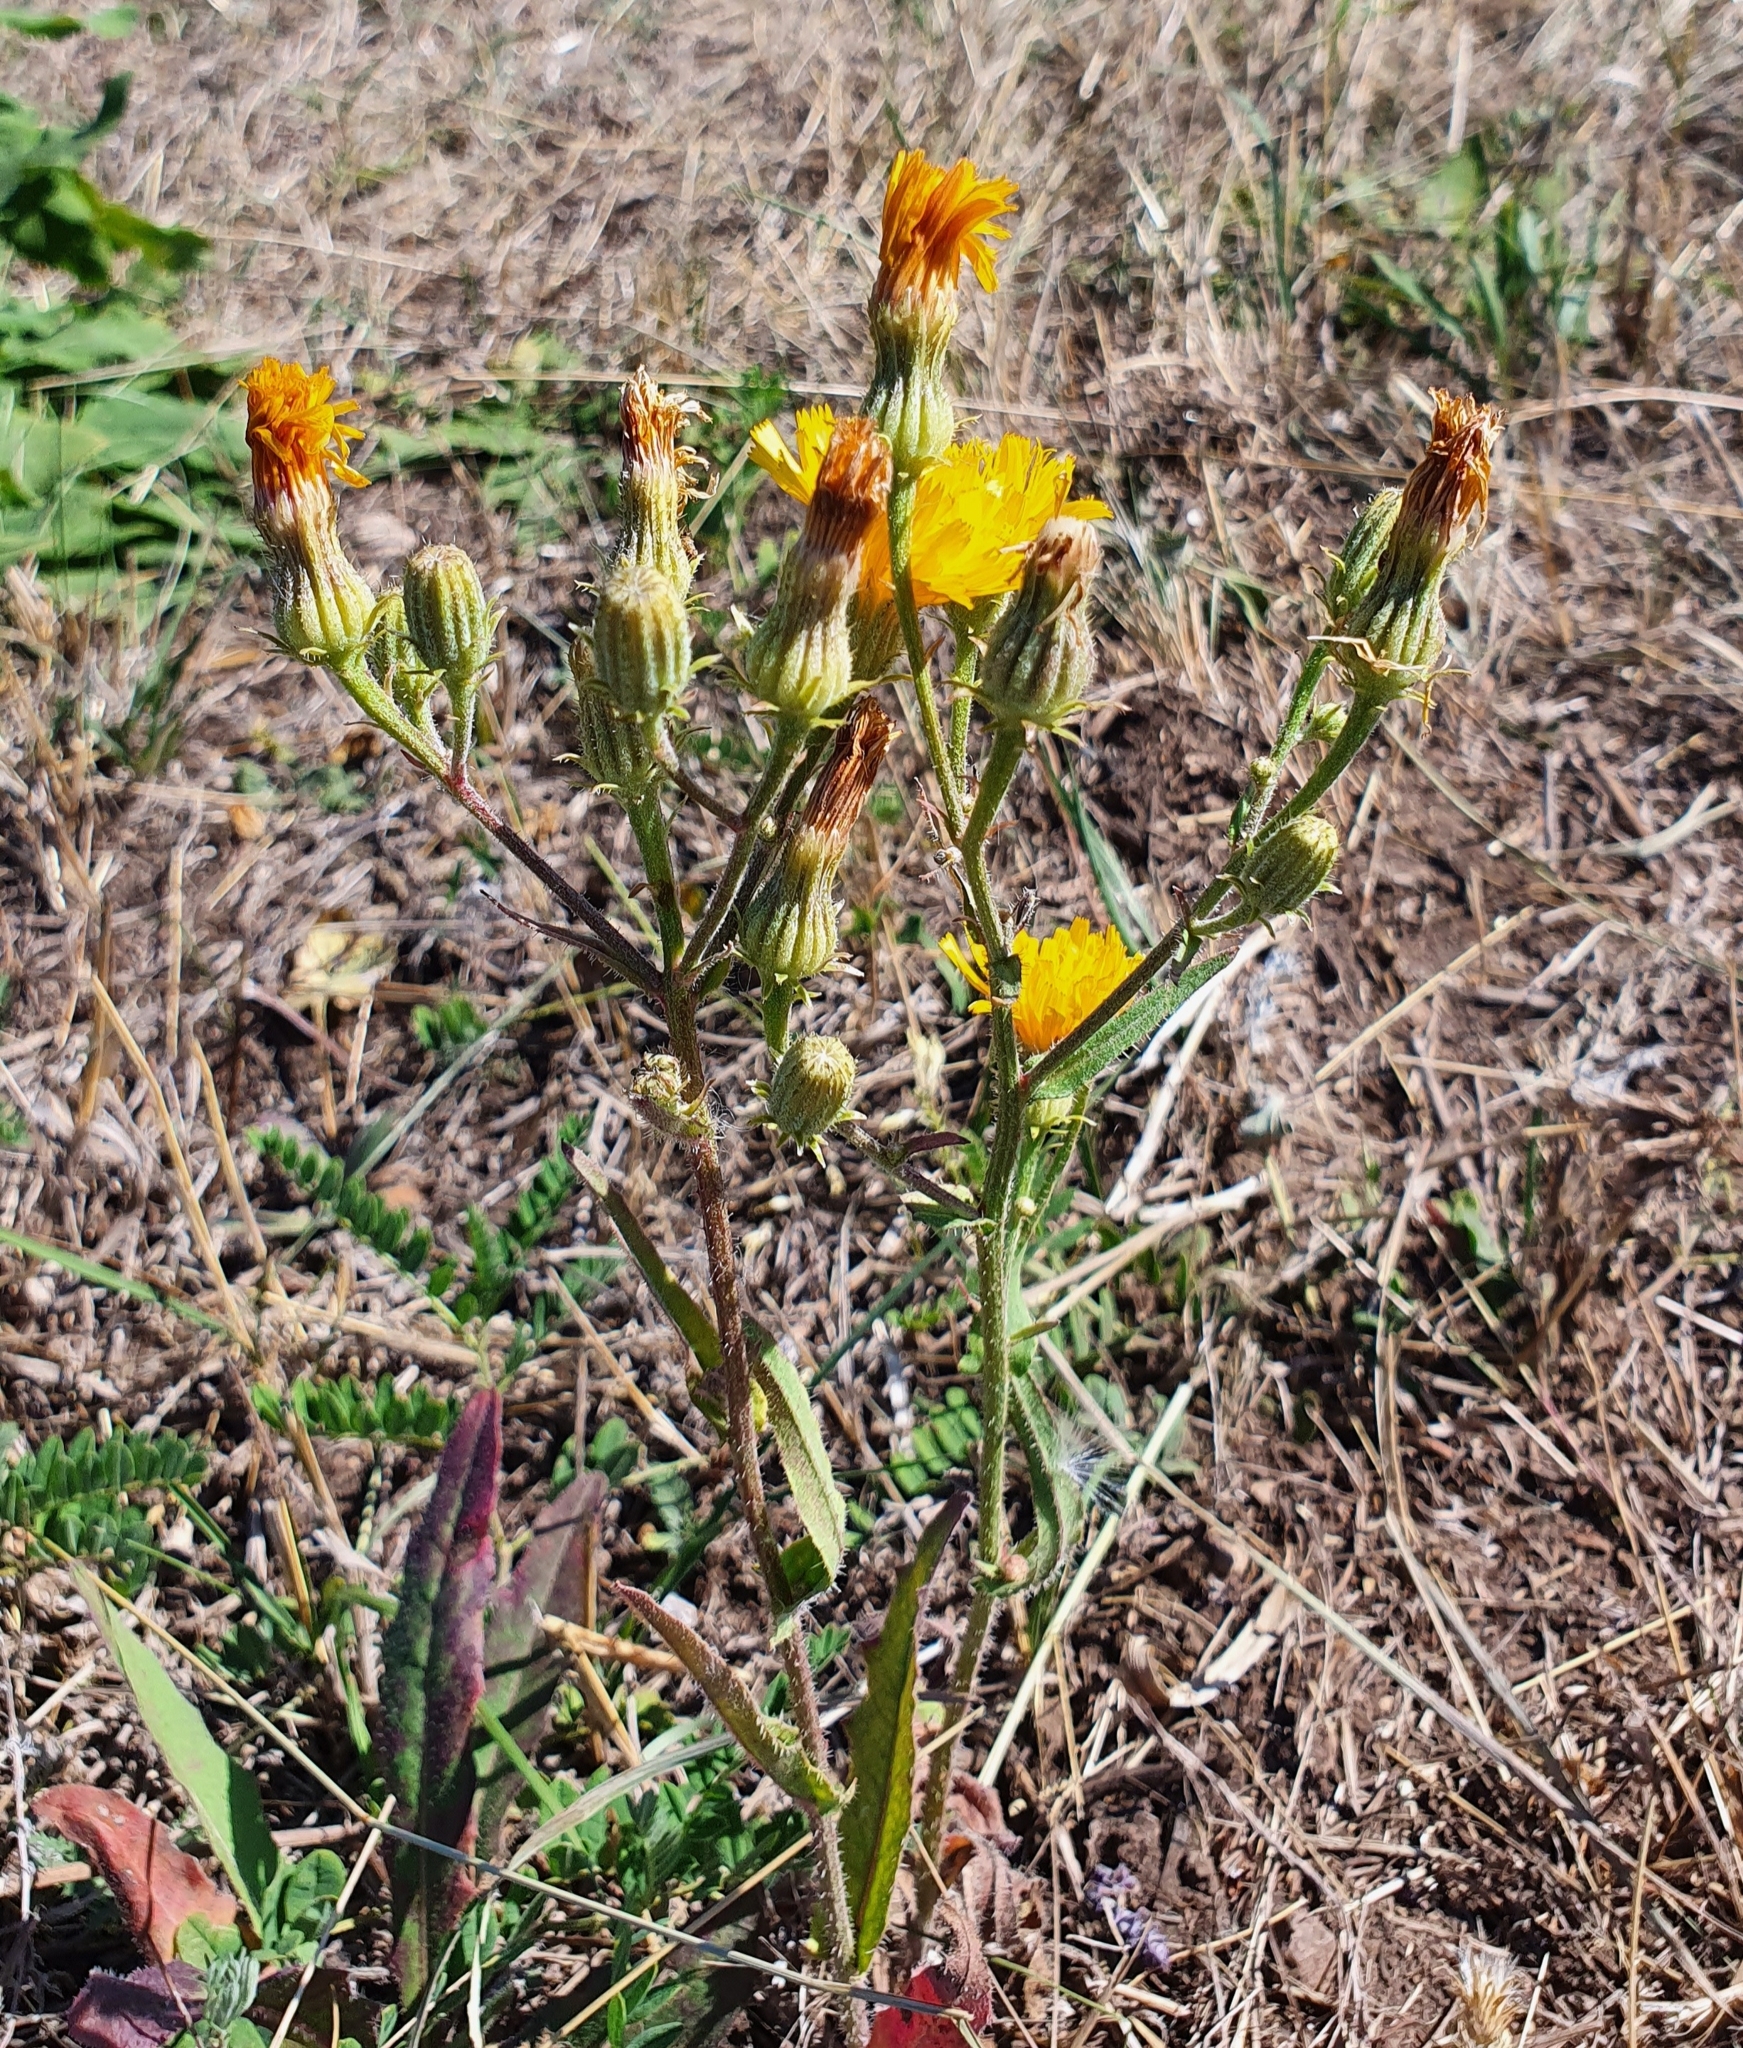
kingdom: Plantae
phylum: Tracheophyta
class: Magnoliopsida
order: Asterales
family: Asteraceae
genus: Picris
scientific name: Picris hieracioides
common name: Hawkweed oxtongue
